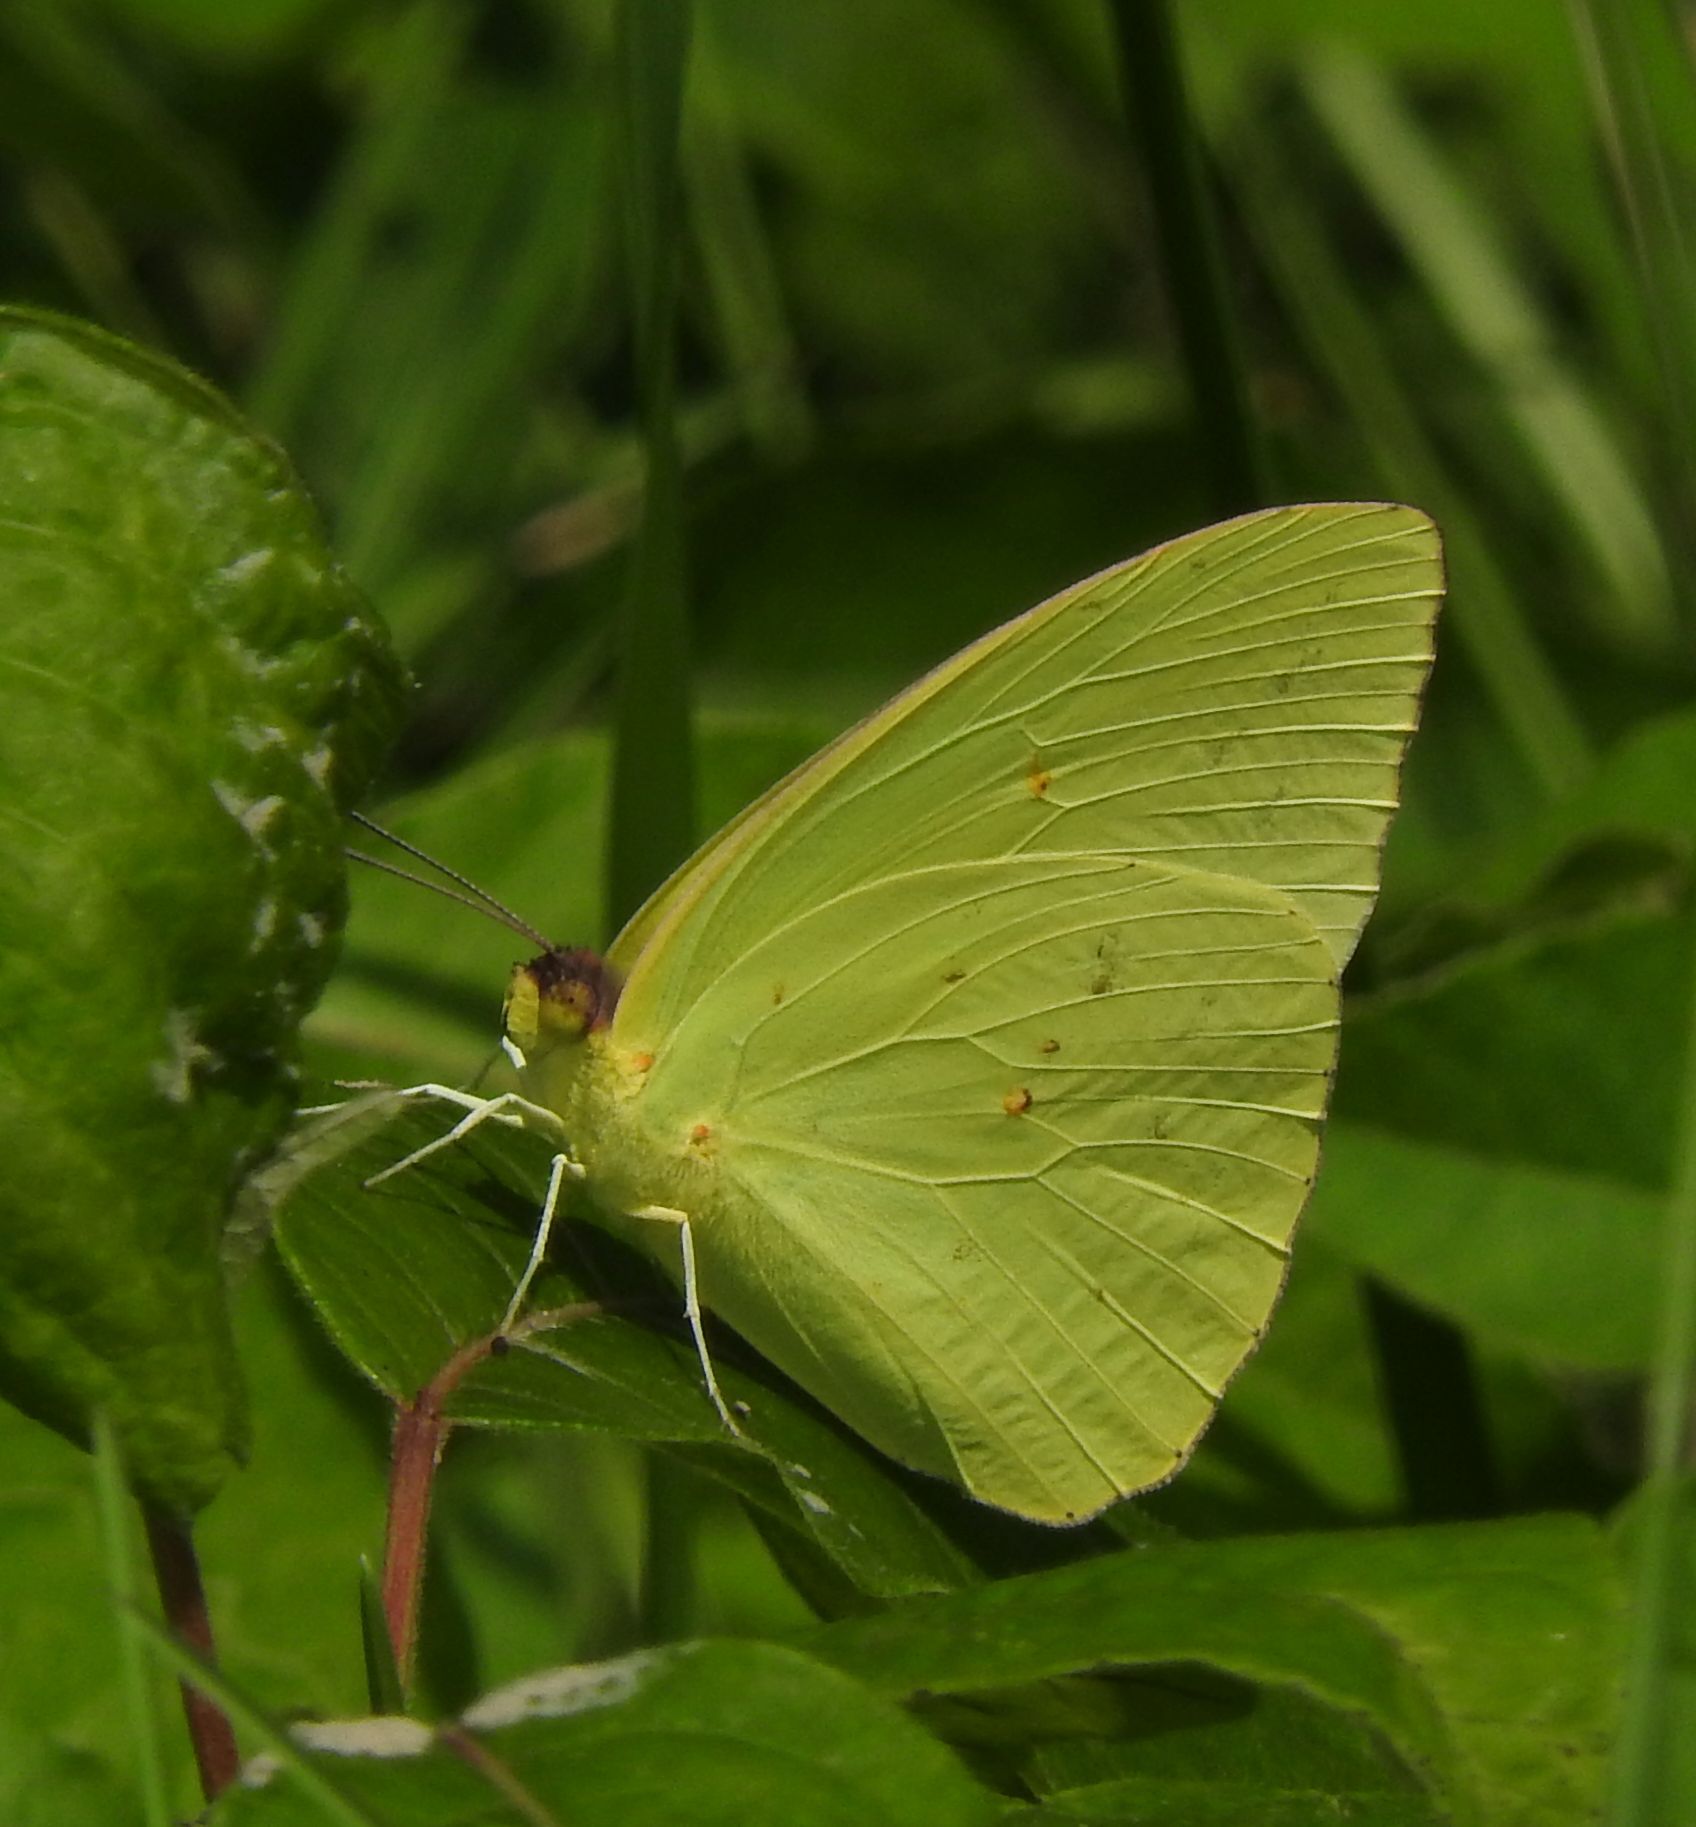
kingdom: Animalia
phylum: Arthropoda
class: Insecta
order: Lepidoptera
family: Pieridae
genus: Phoebis
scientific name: Phoebis sennae
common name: Cloudless sulphur
